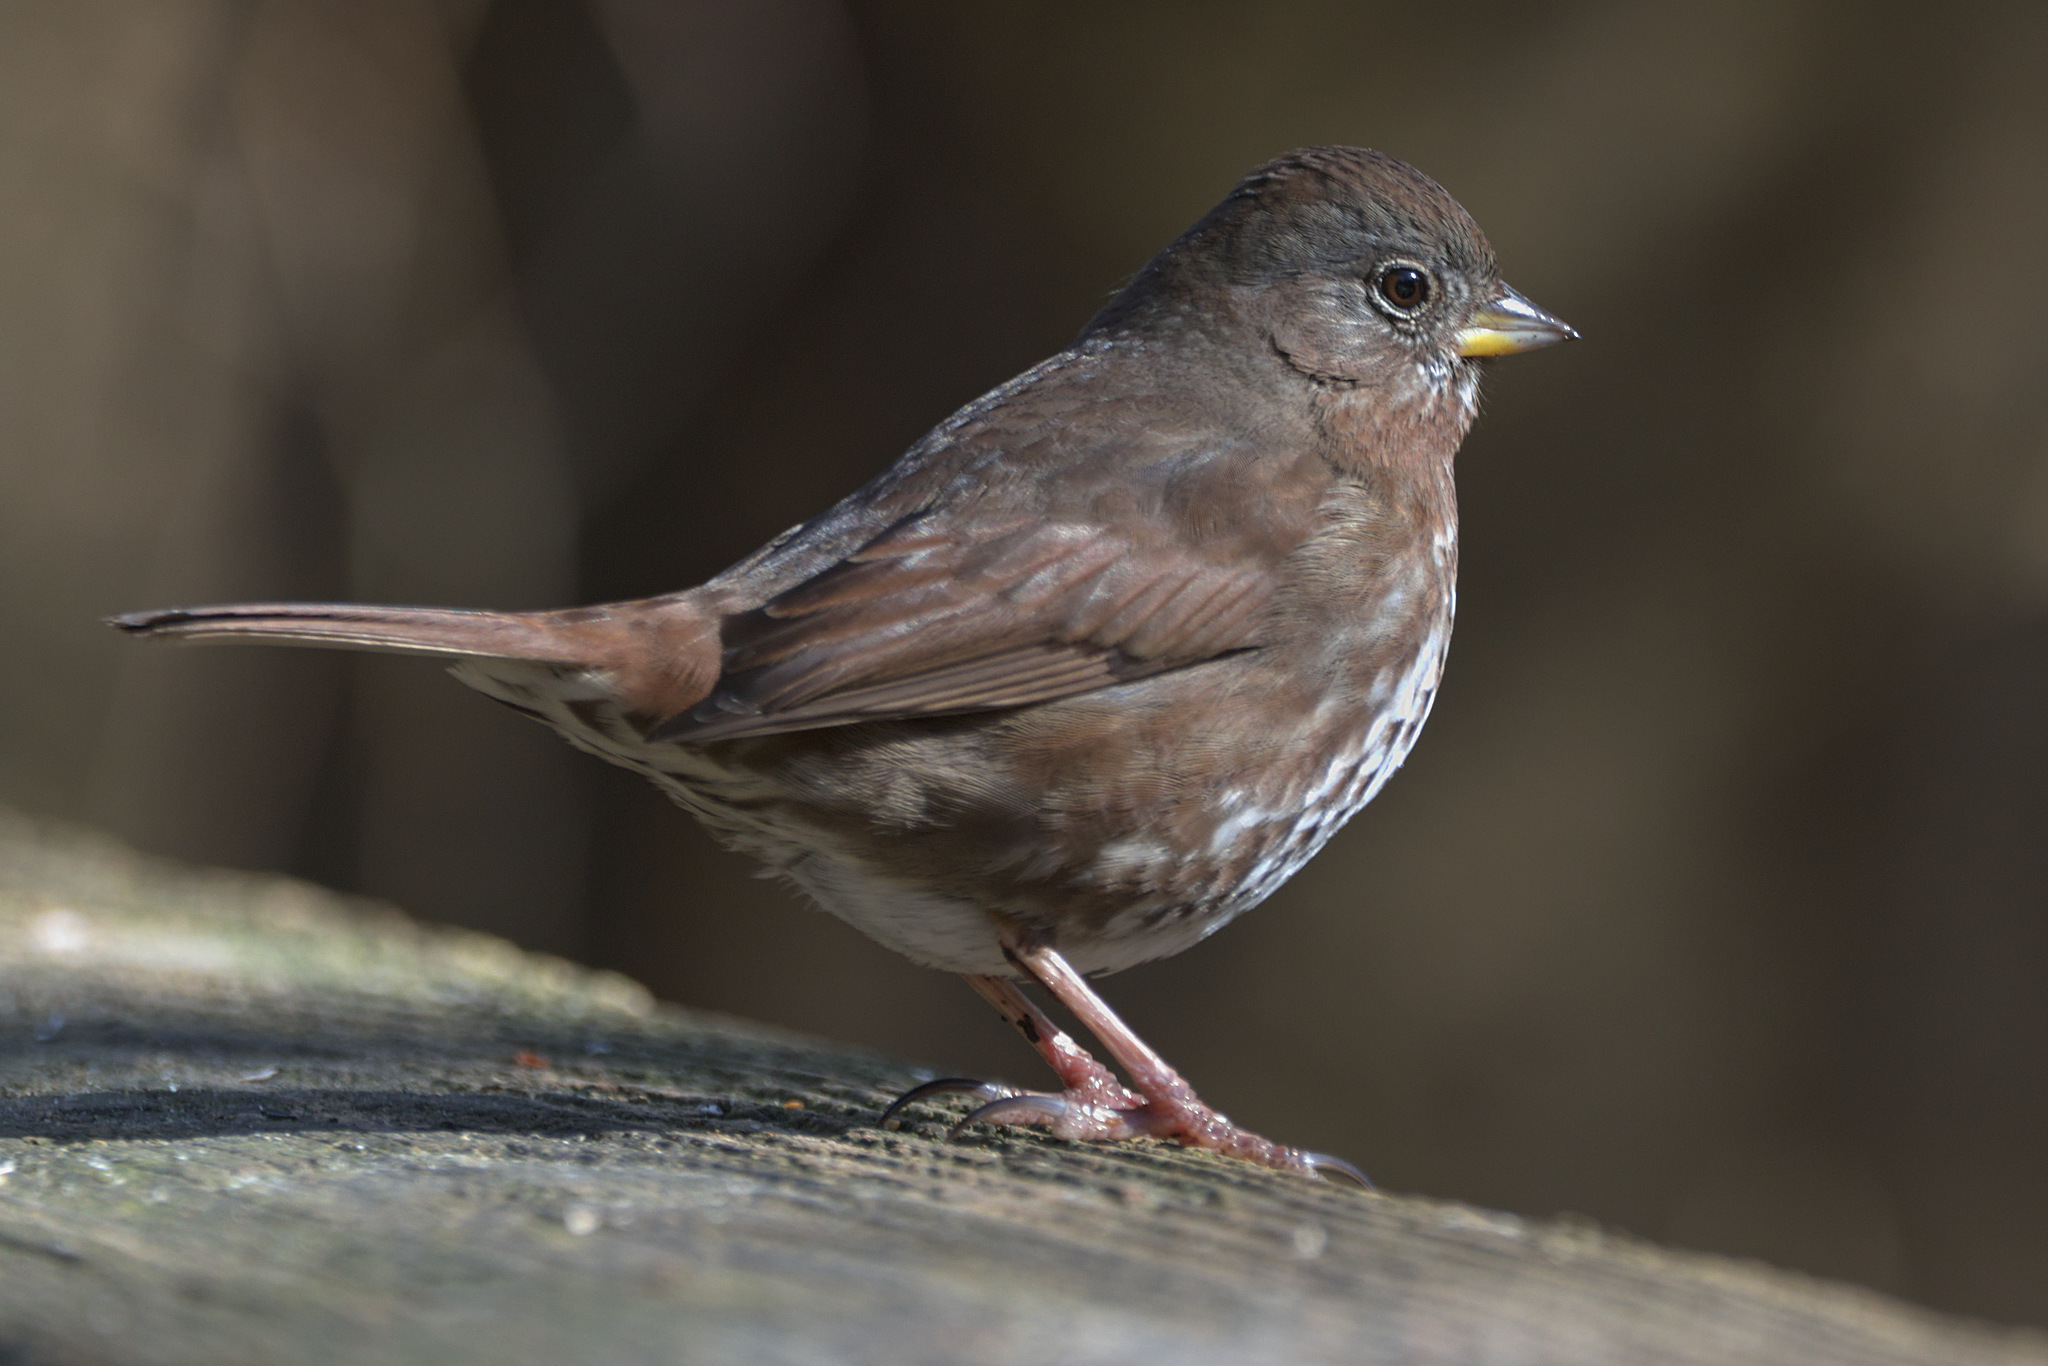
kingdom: Animalia
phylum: Chordata
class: Aves
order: Passeriformes
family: Passerellidae
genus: Passerella
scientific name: Passerella iliaca
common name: Fox sparrow
